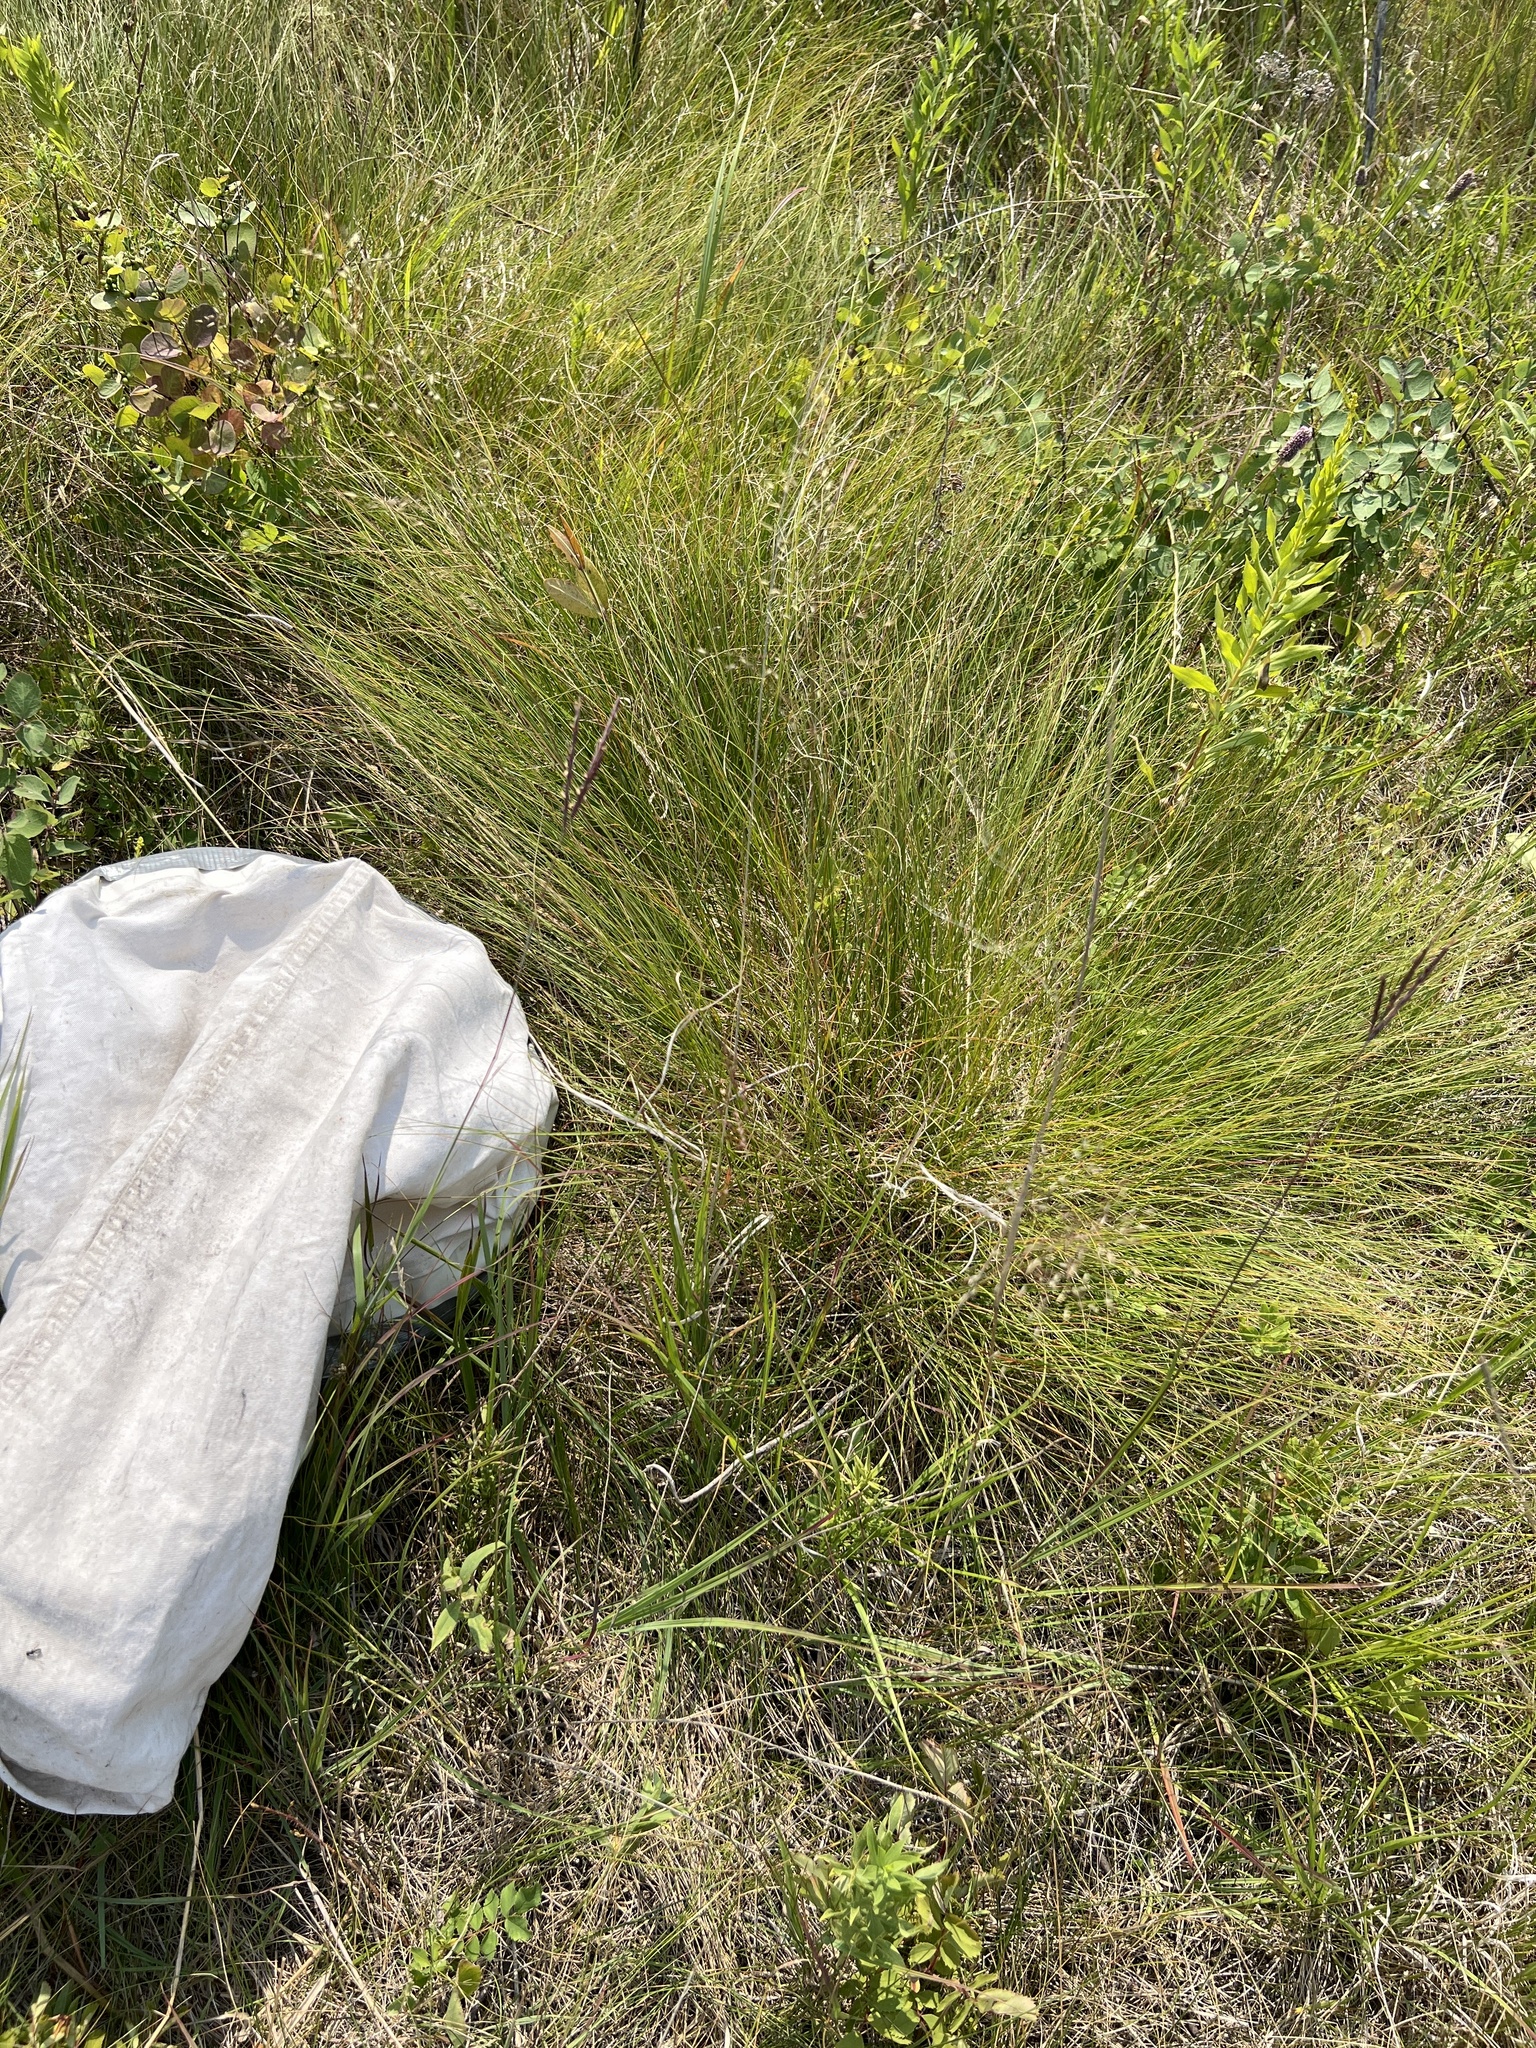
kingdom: Plantae
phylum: Tracheophyta
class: Liliopsida
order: Poales
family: Poaceae
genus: Sporobolus
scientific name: Sporobolus heterolepis
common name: Prairie dropseed
